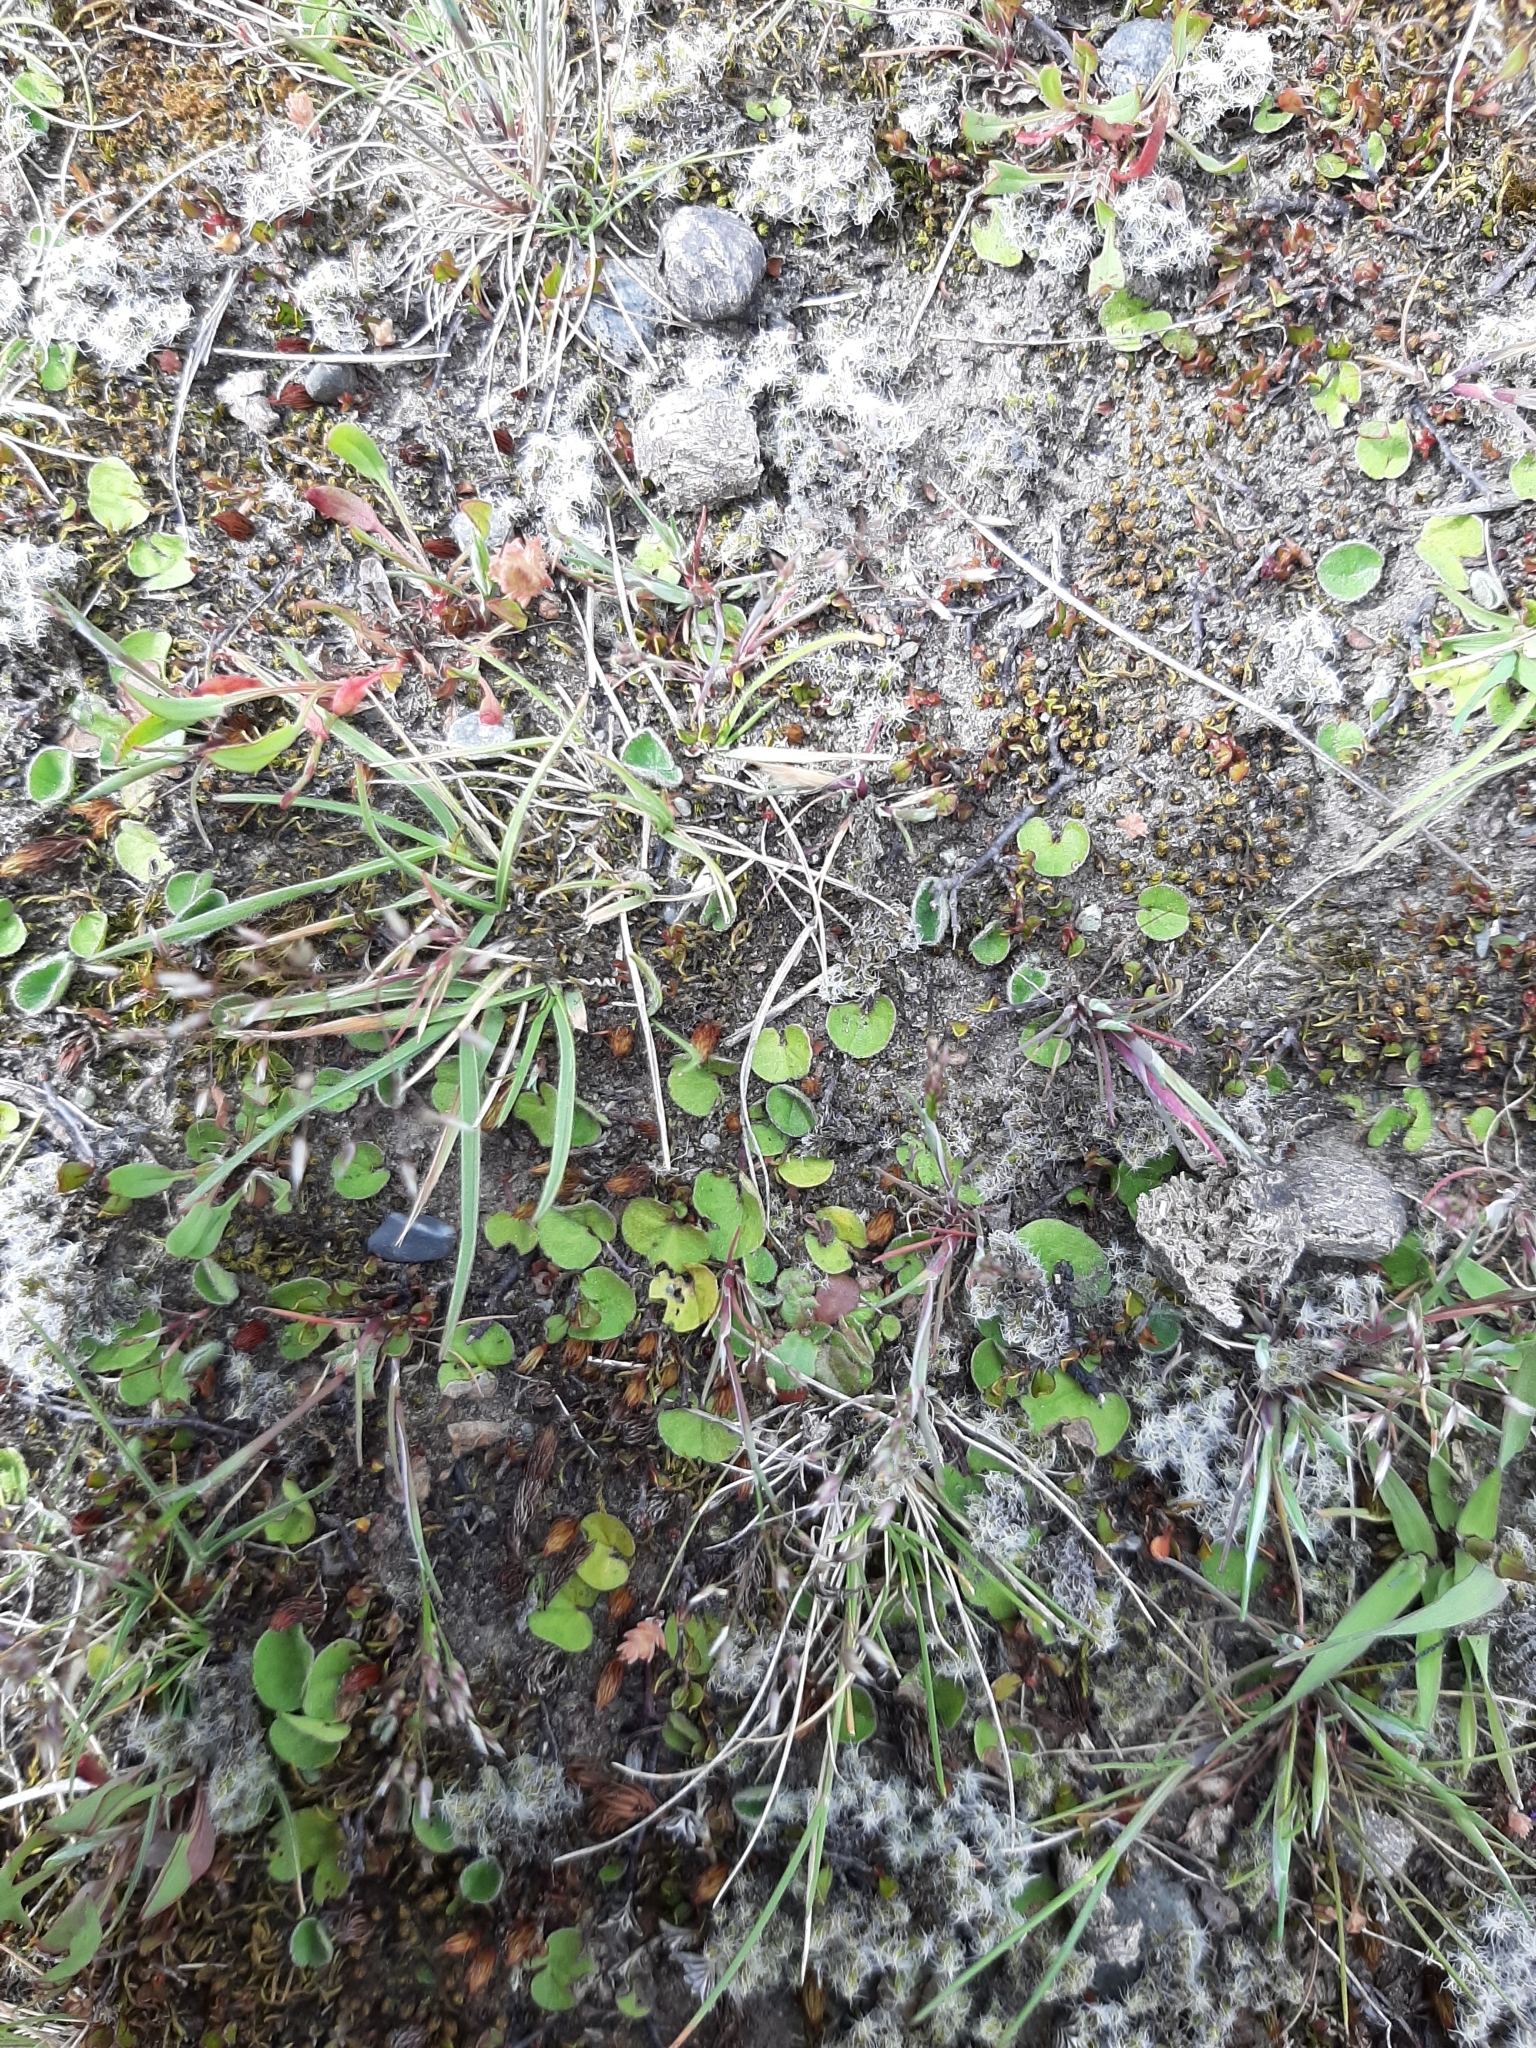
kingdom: Plantae
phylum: Tracheophyta
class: Magnoliopsida
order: Solanales
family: Convolvulaceae
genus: Dichondra
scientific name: Dichondra brevifolia
